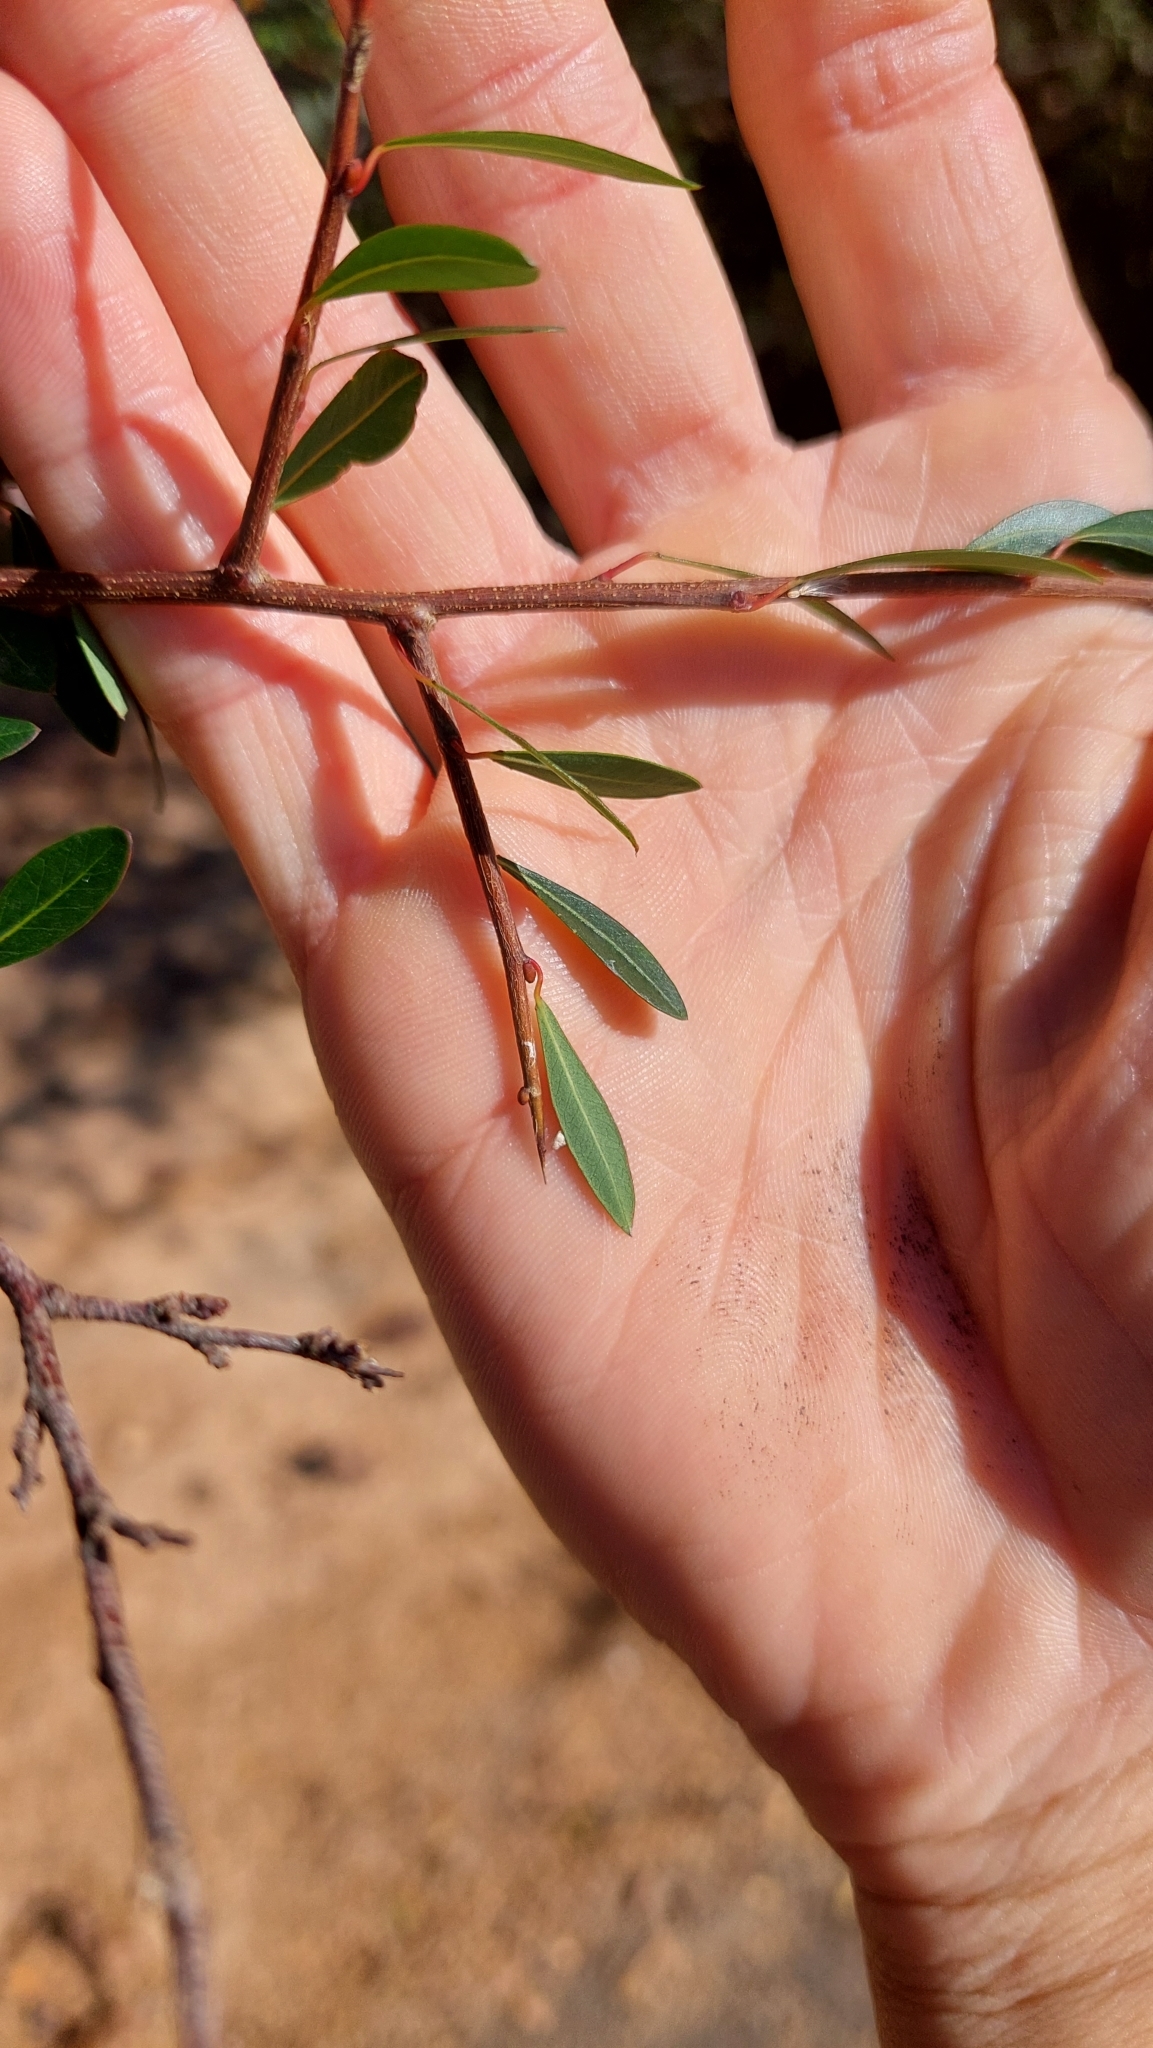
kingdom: Plantae
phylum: Tracheophyta
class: Magnoliopsida
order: Malpighiales
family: Euphorbiaceae
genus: Sebastiania
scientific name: Sebastiania schottiana
